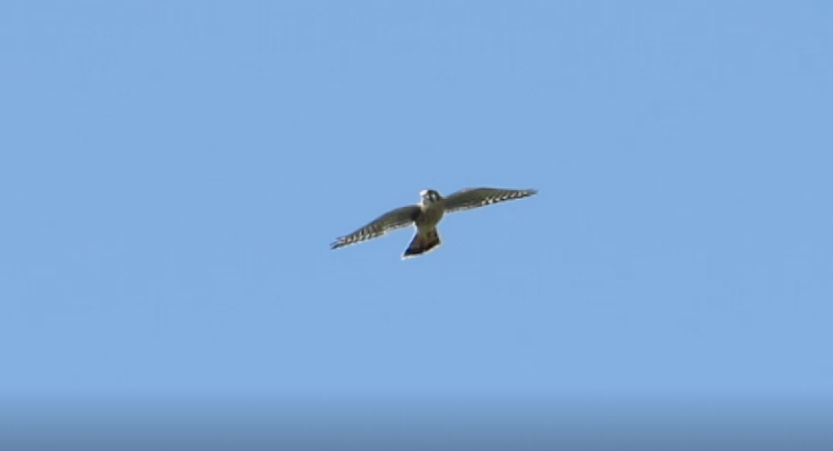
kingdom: Animalia
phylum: Chordata
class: Aves
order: Falconiformes
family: Falconidae
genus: Falco
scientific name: Falco sparverius
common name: American kestrel
